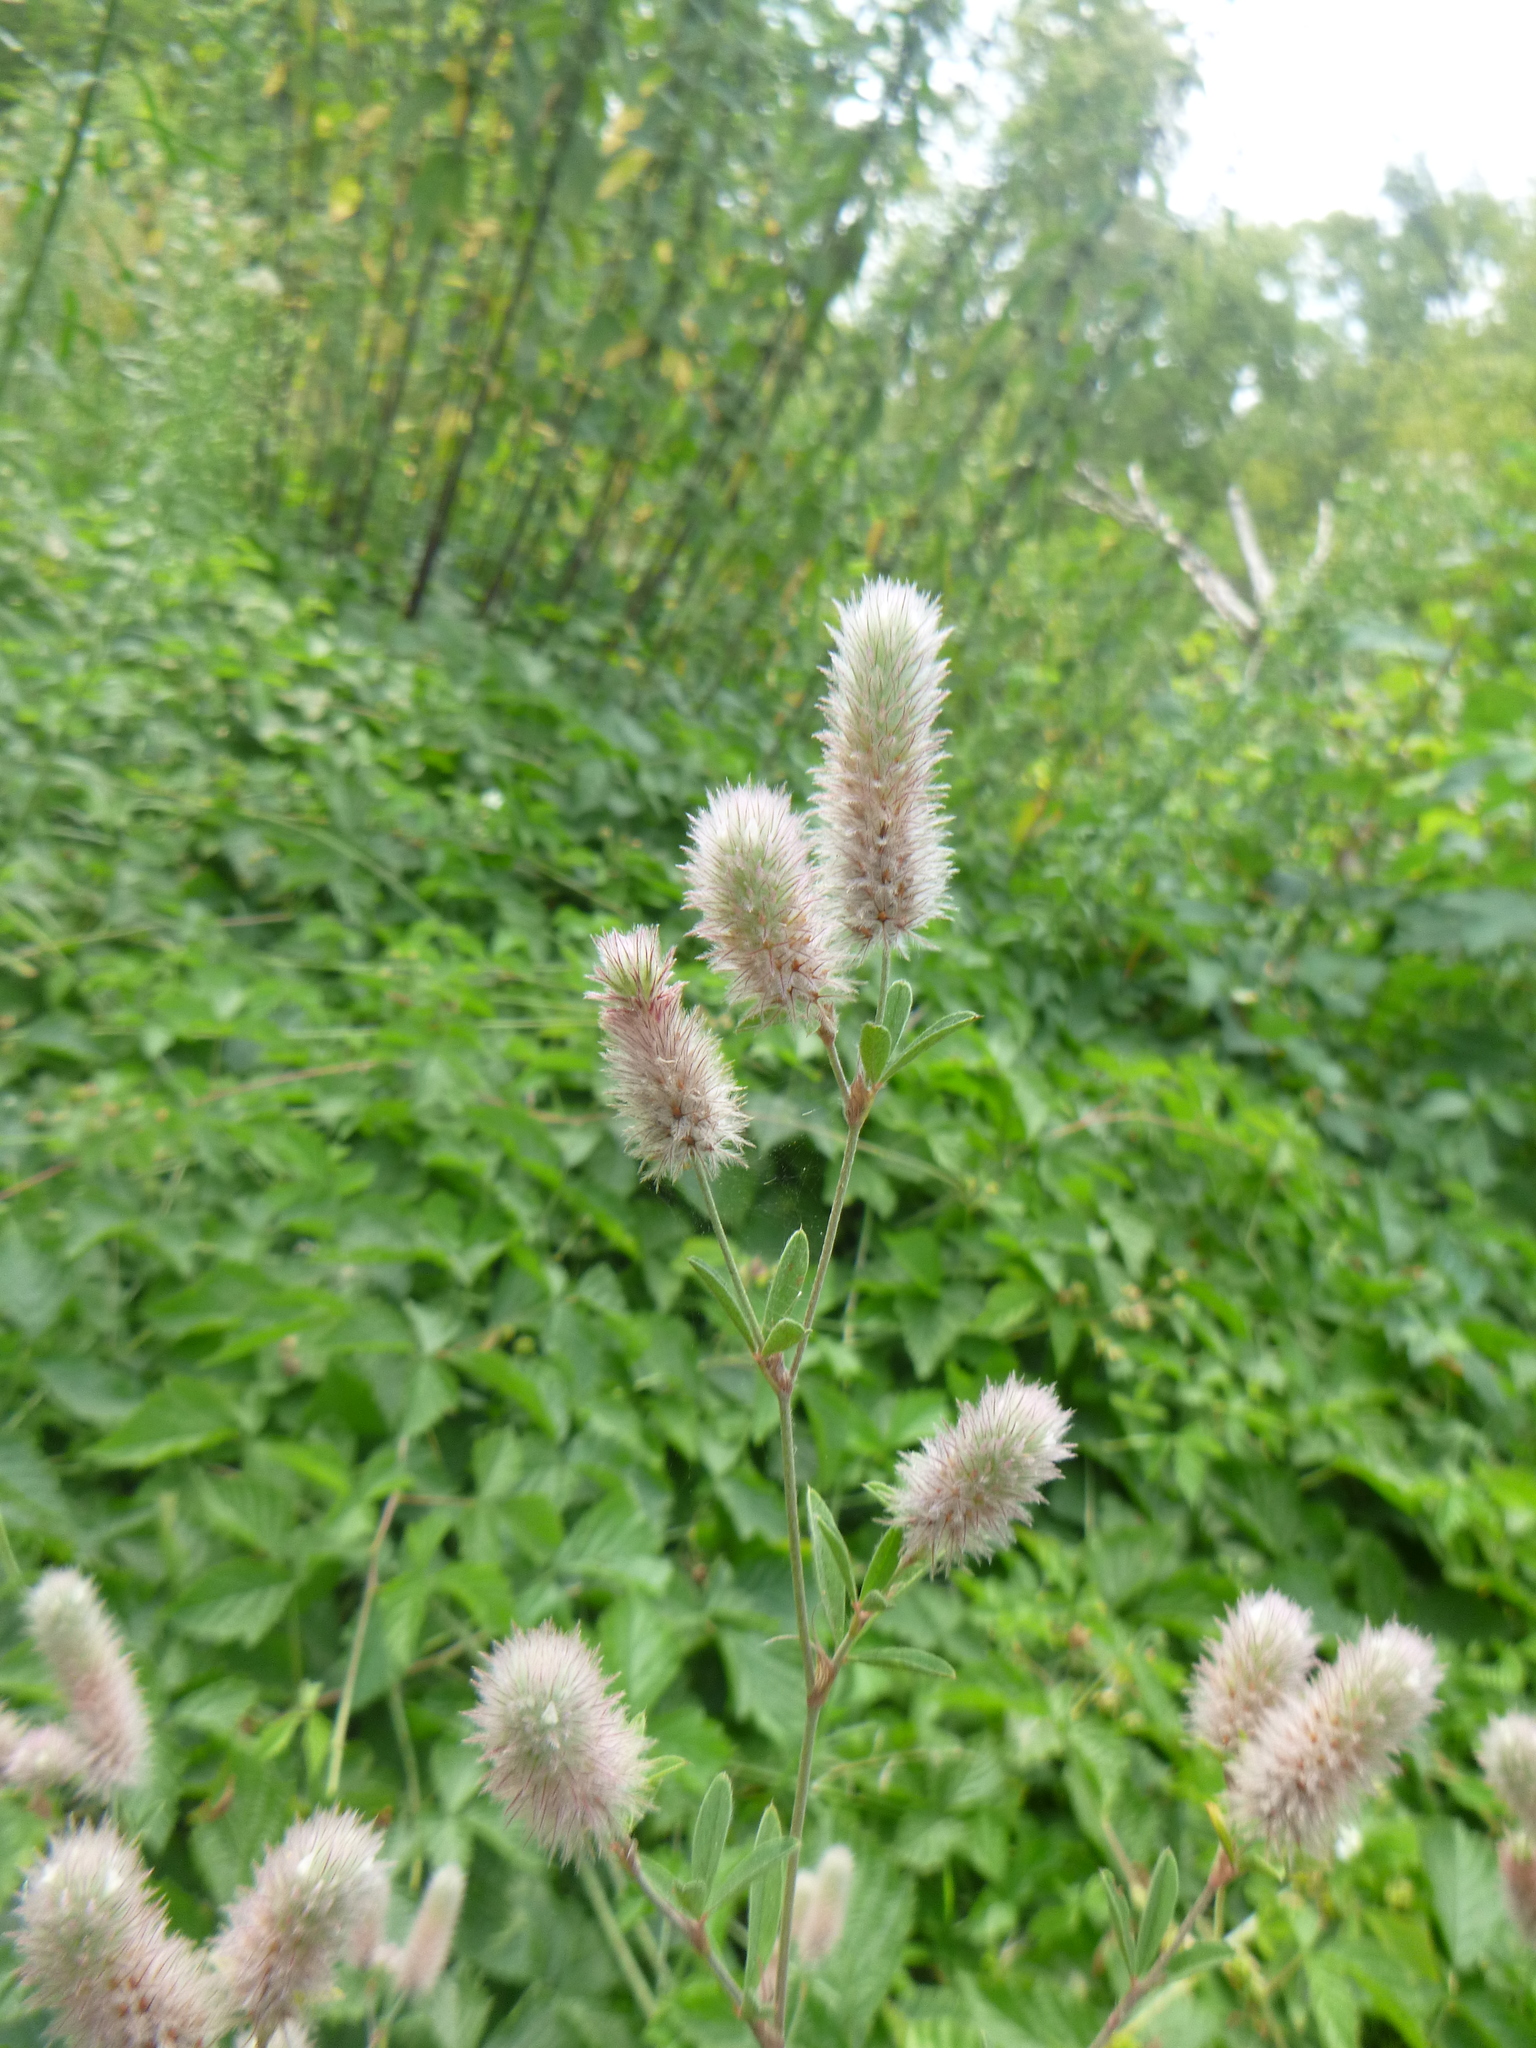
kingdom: Plantae
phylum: Tracheophyta
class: Magnoliopsida
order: Fabales
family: Fabaceae
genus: Trifolium
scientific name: Trifolium arvense
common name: Hare's-foot clover
